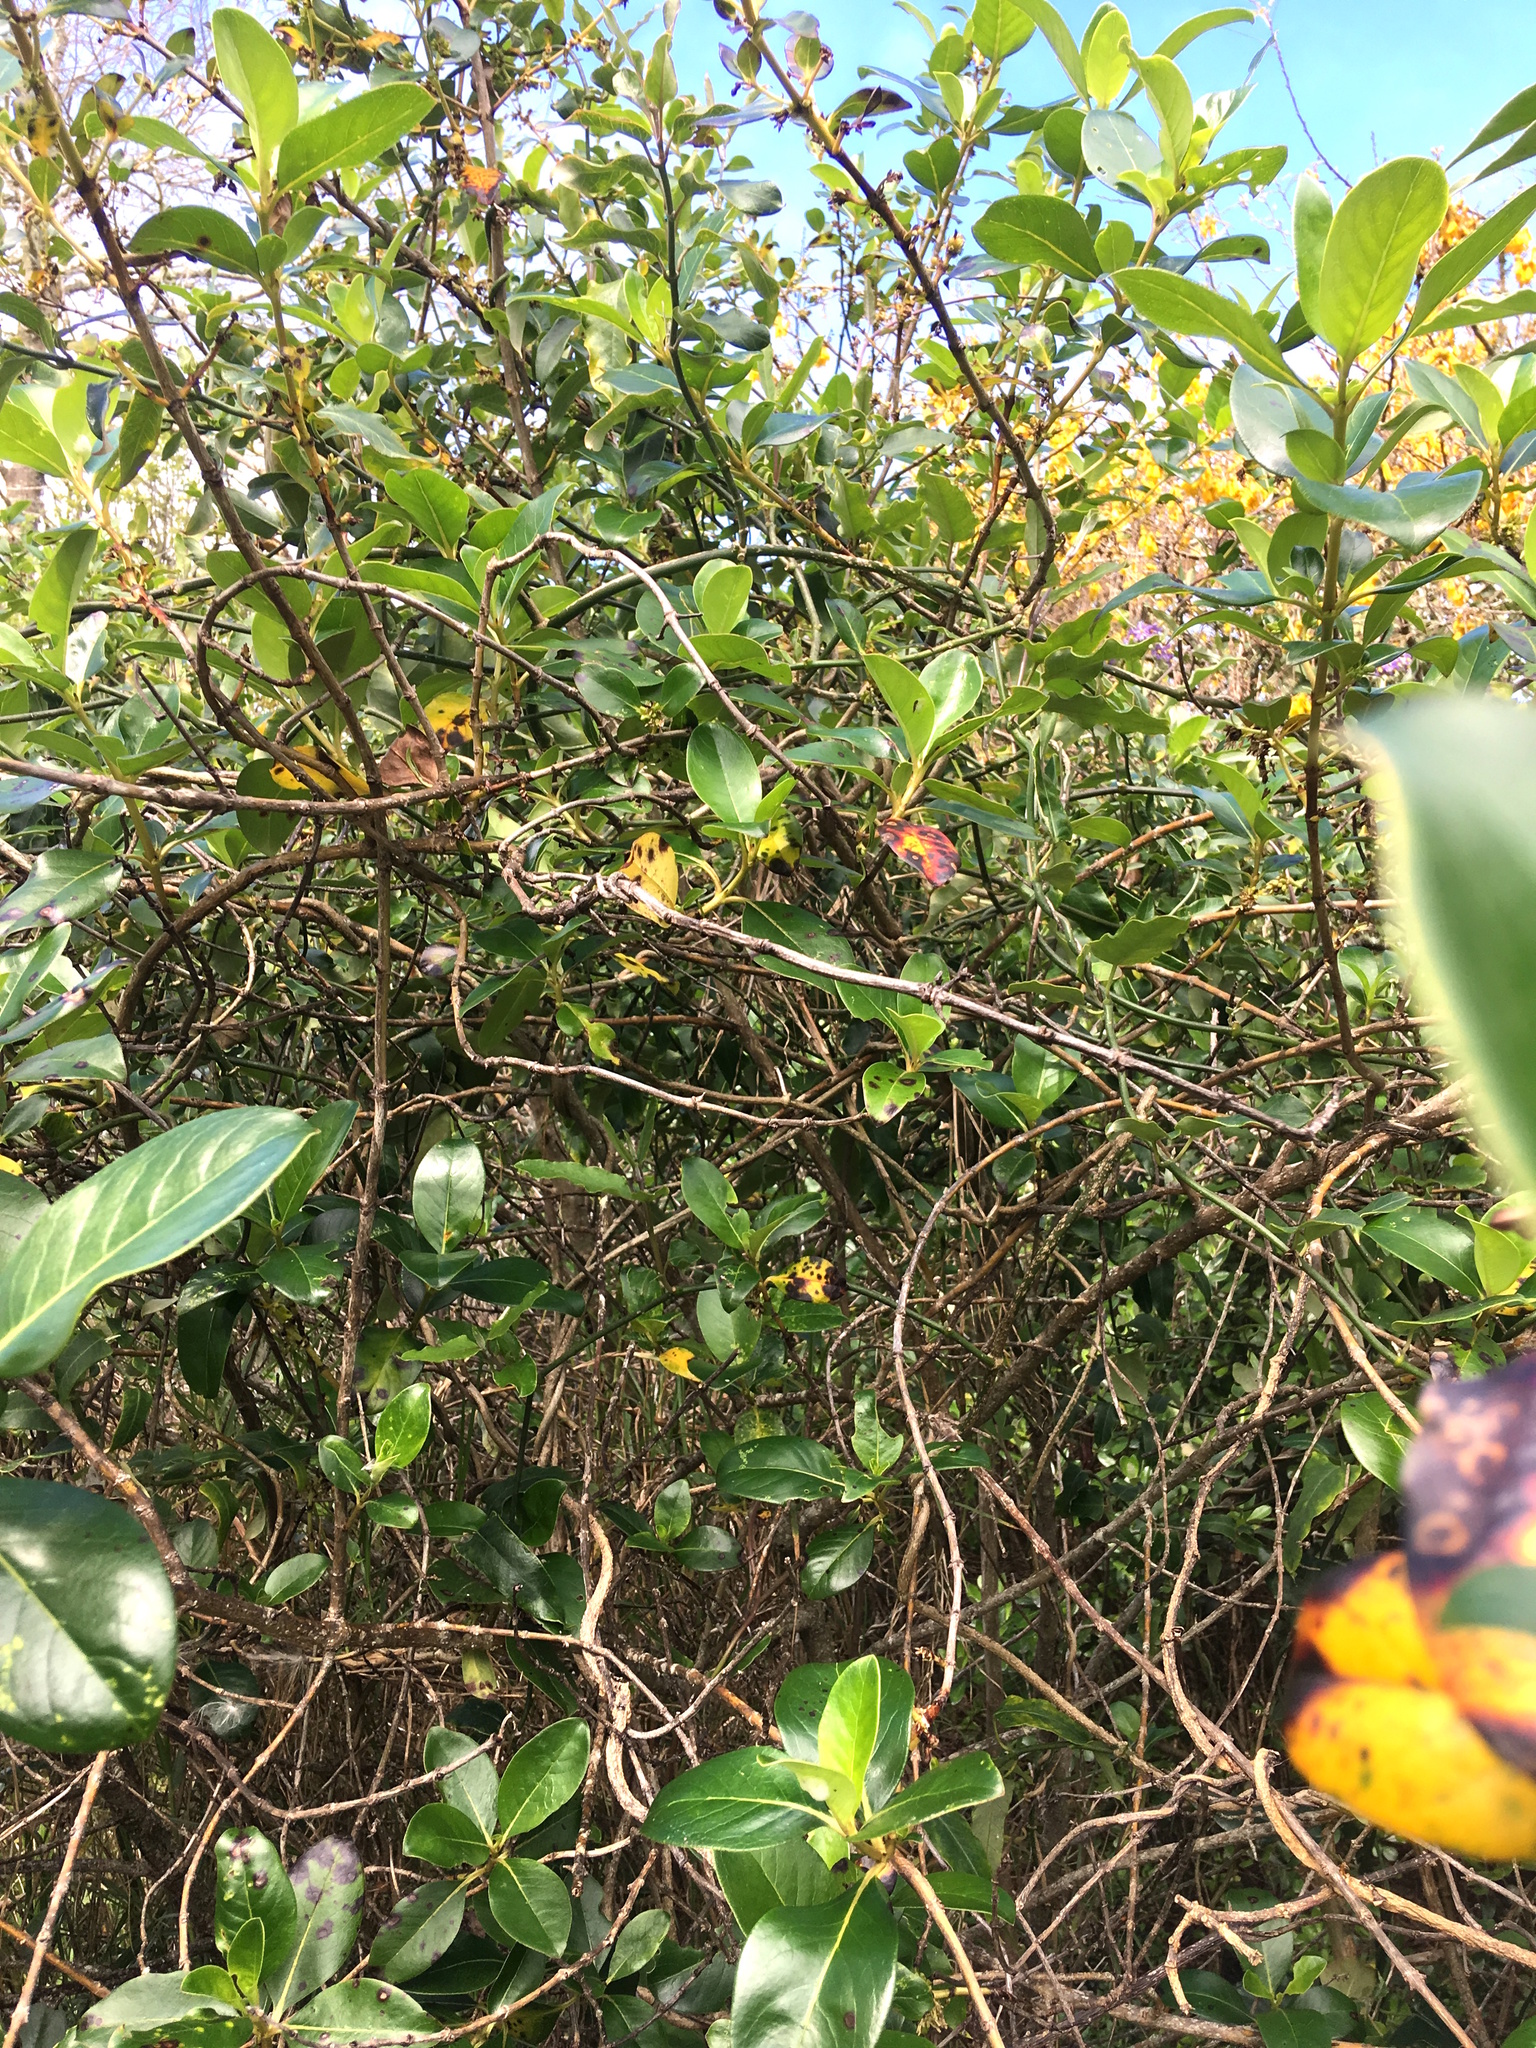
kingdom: Plantae
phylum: Tracheophyta
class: Magnoliopsida
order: Gentianales
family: Rubiaceae
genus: Coprosma
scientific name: Coprosma robusta
